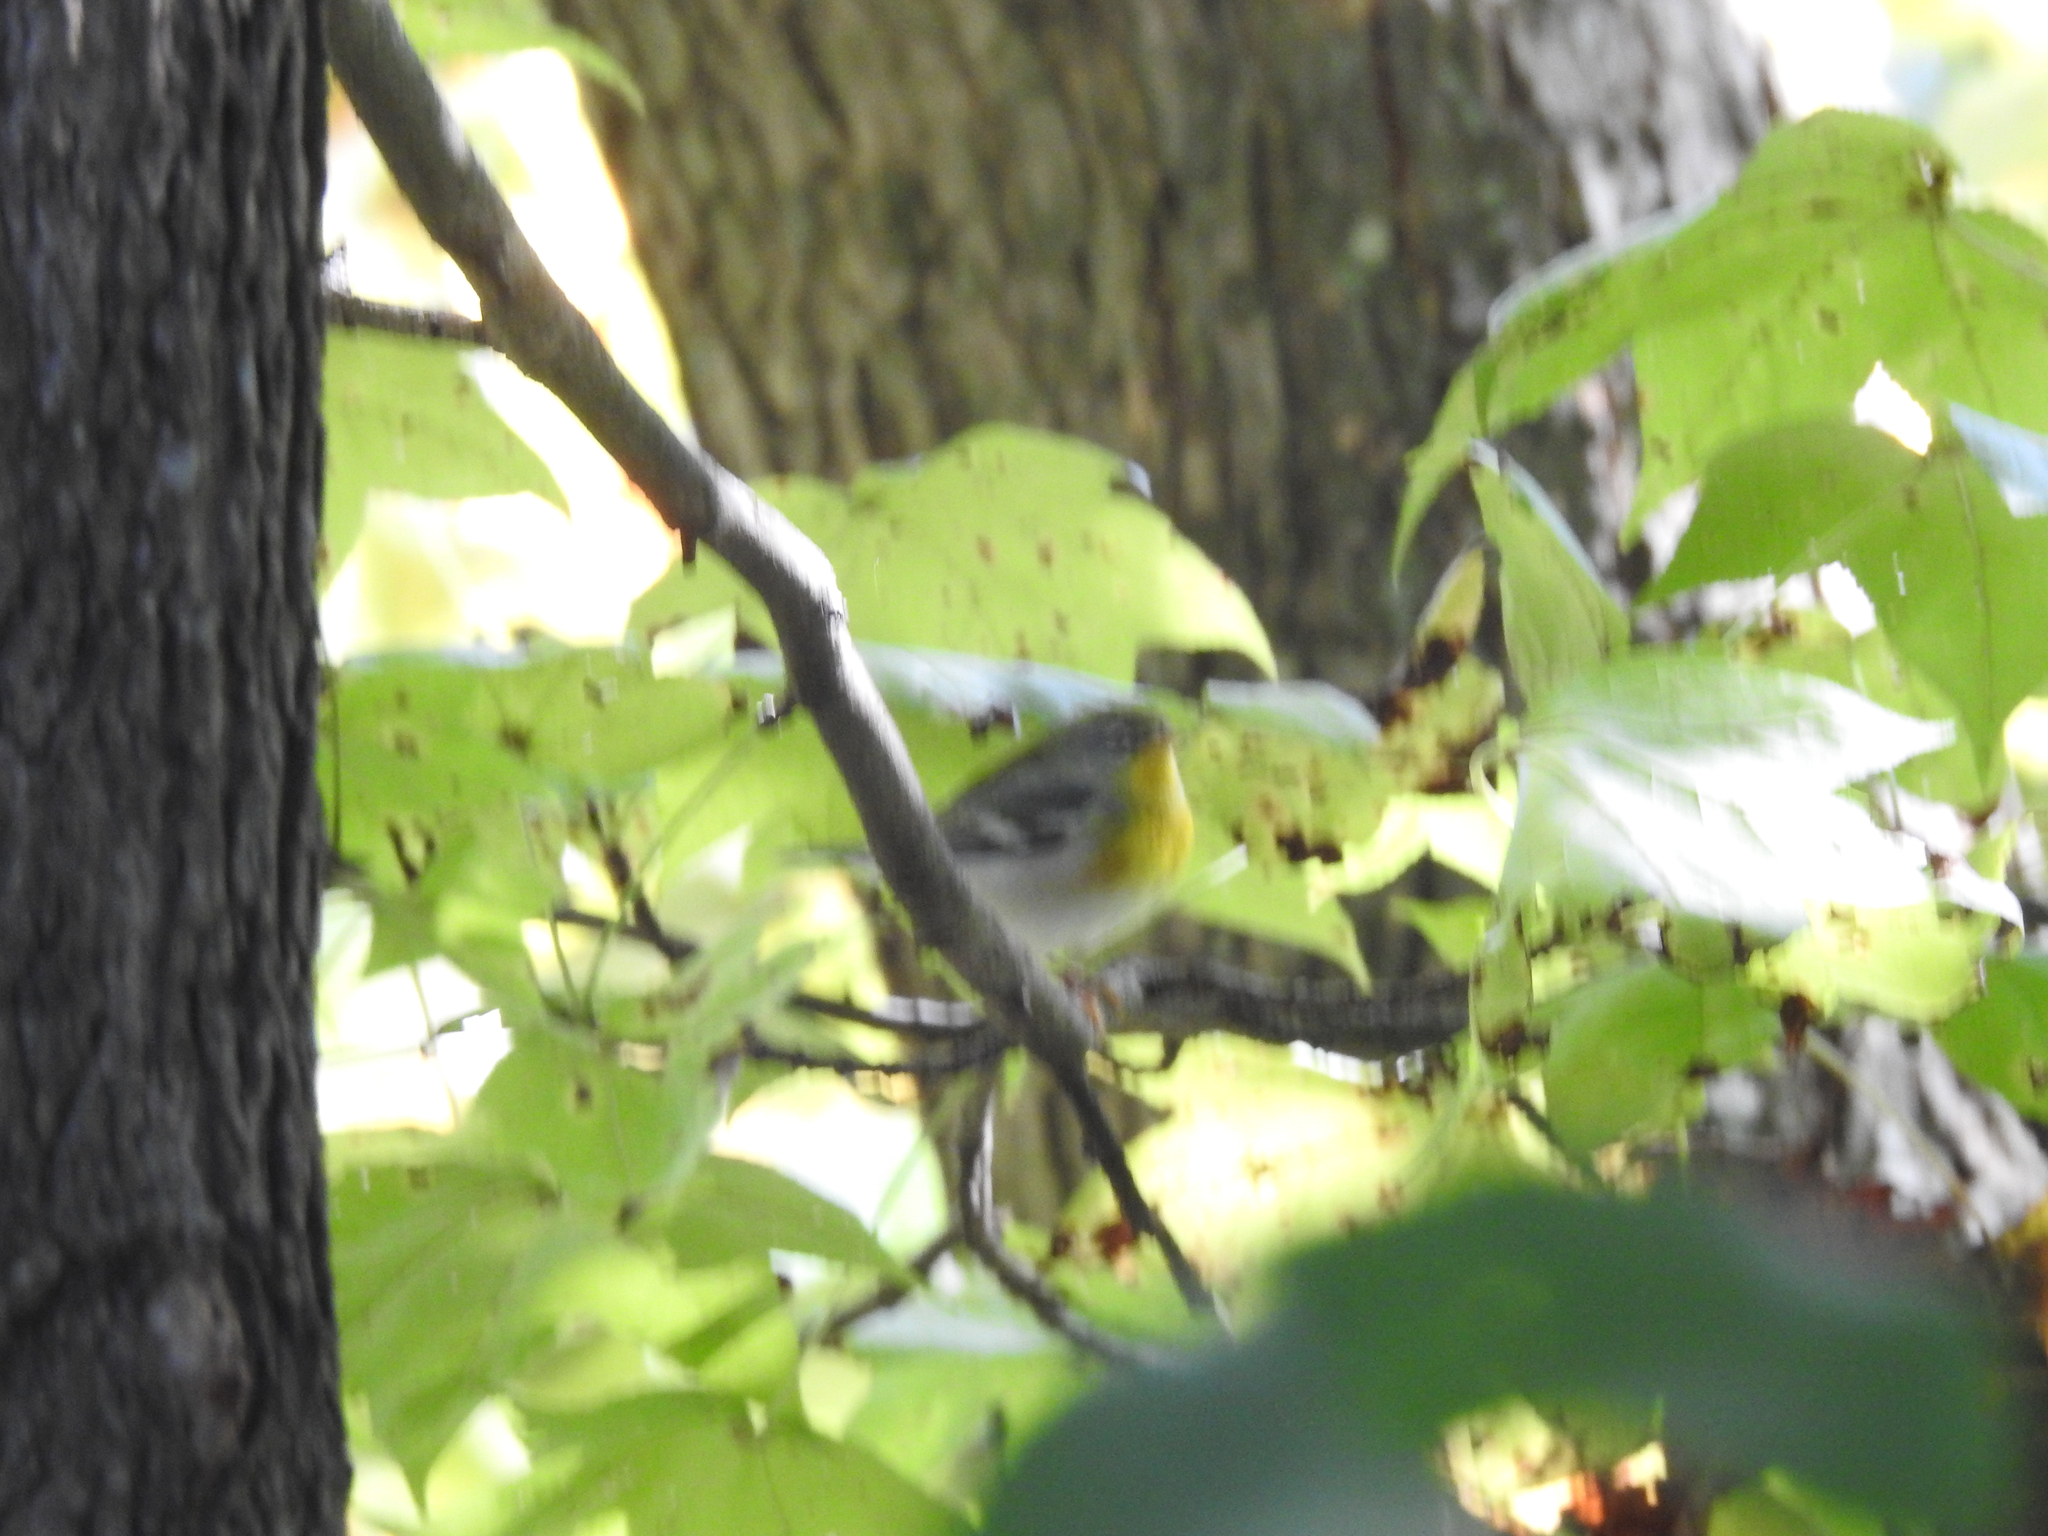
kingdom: Animalia
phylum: Chordata
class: Aves
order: Passeriformes
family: Parulidae
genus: Setophaga
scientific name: Setophaga americana
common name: Northern parula
